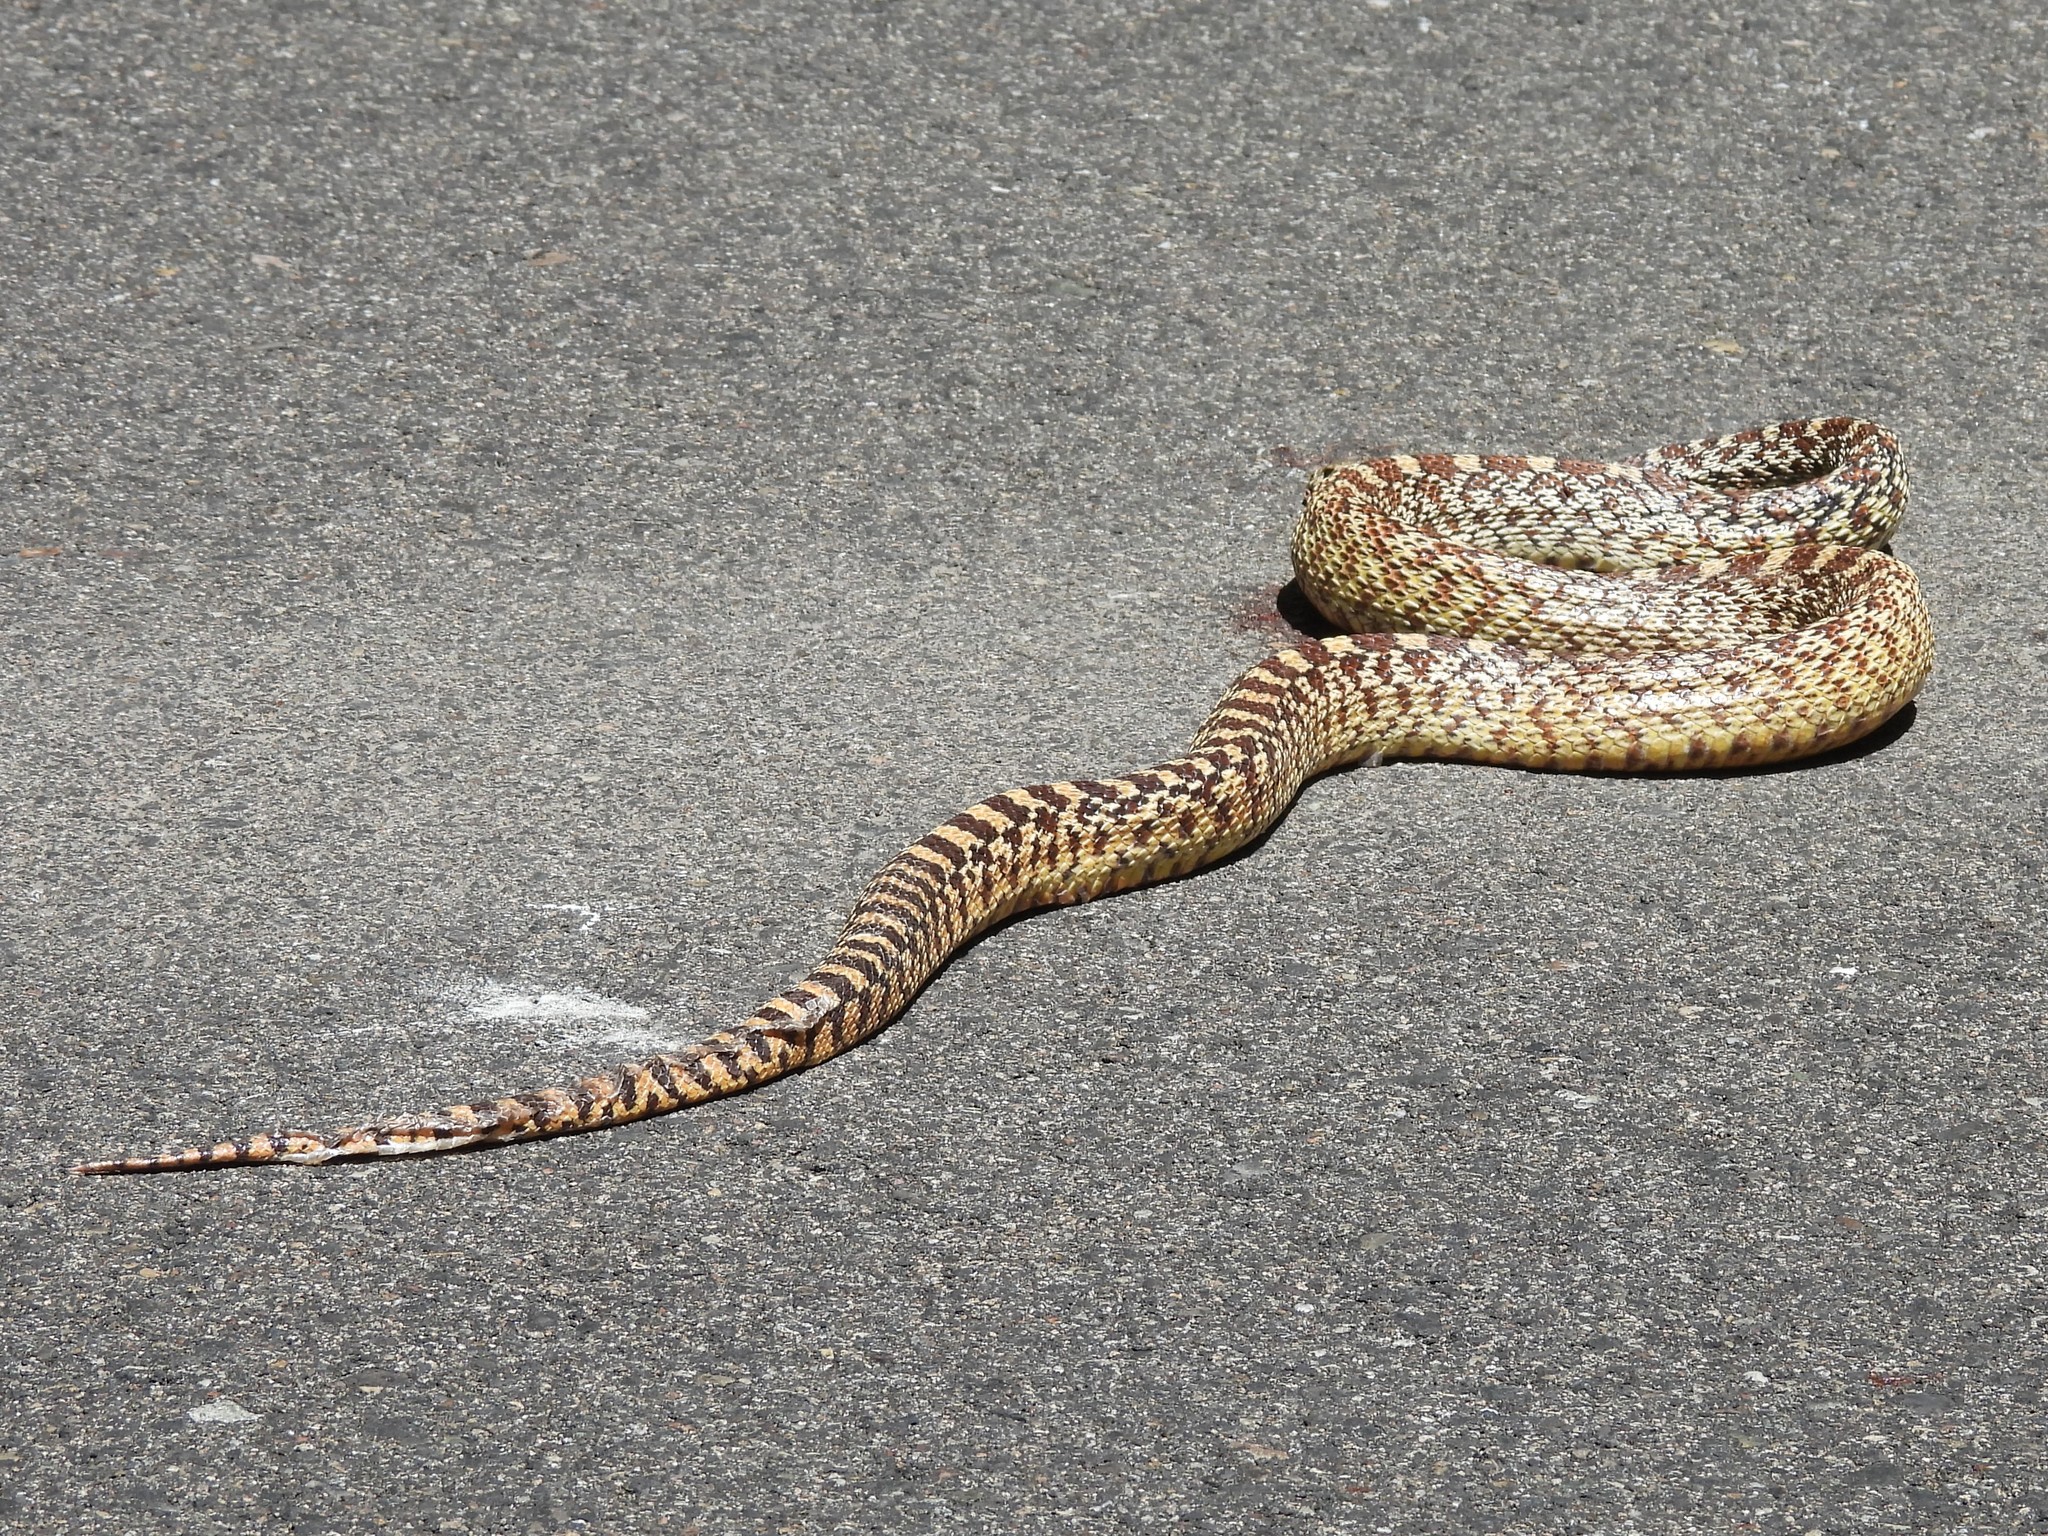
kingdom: Animalia
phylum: Chordata
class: Squamata
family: Colubridae
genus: Pituophis
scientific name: Pituophis catenifer
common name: Gopher snake
